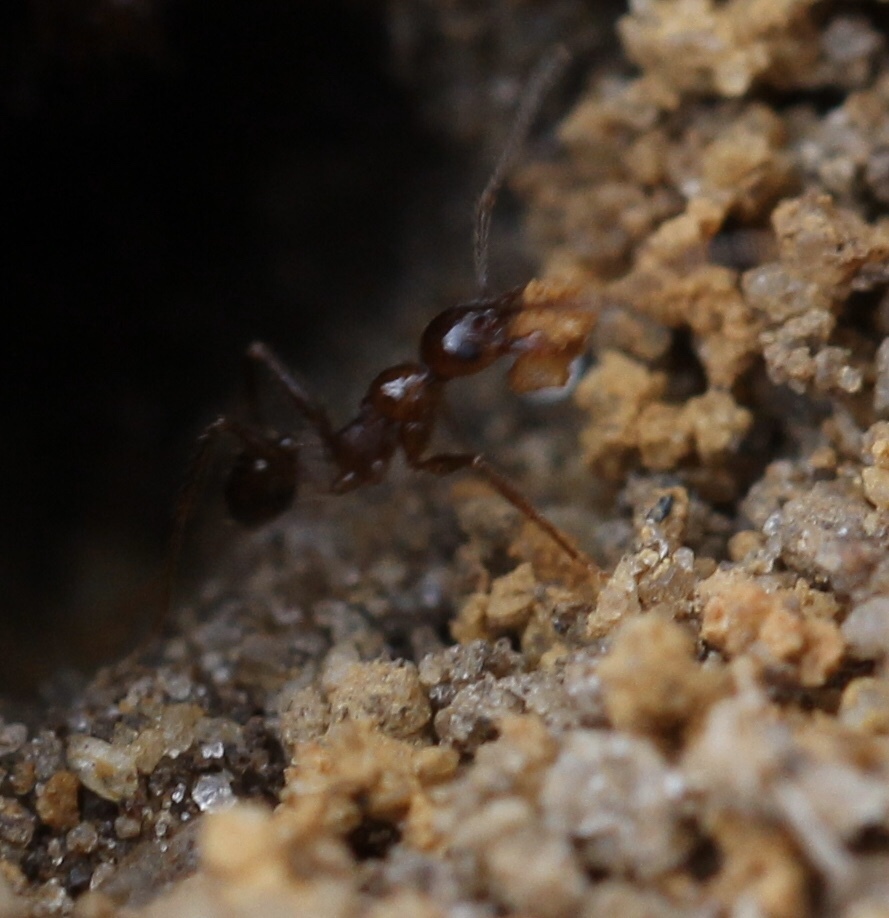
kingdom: Animalia
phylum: Arthropoda
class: Insecta
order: Hymenoptera
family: Formicidae
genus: Pheidole
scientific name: Pheidole obscurithorax
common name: Obscure big-headed ant
